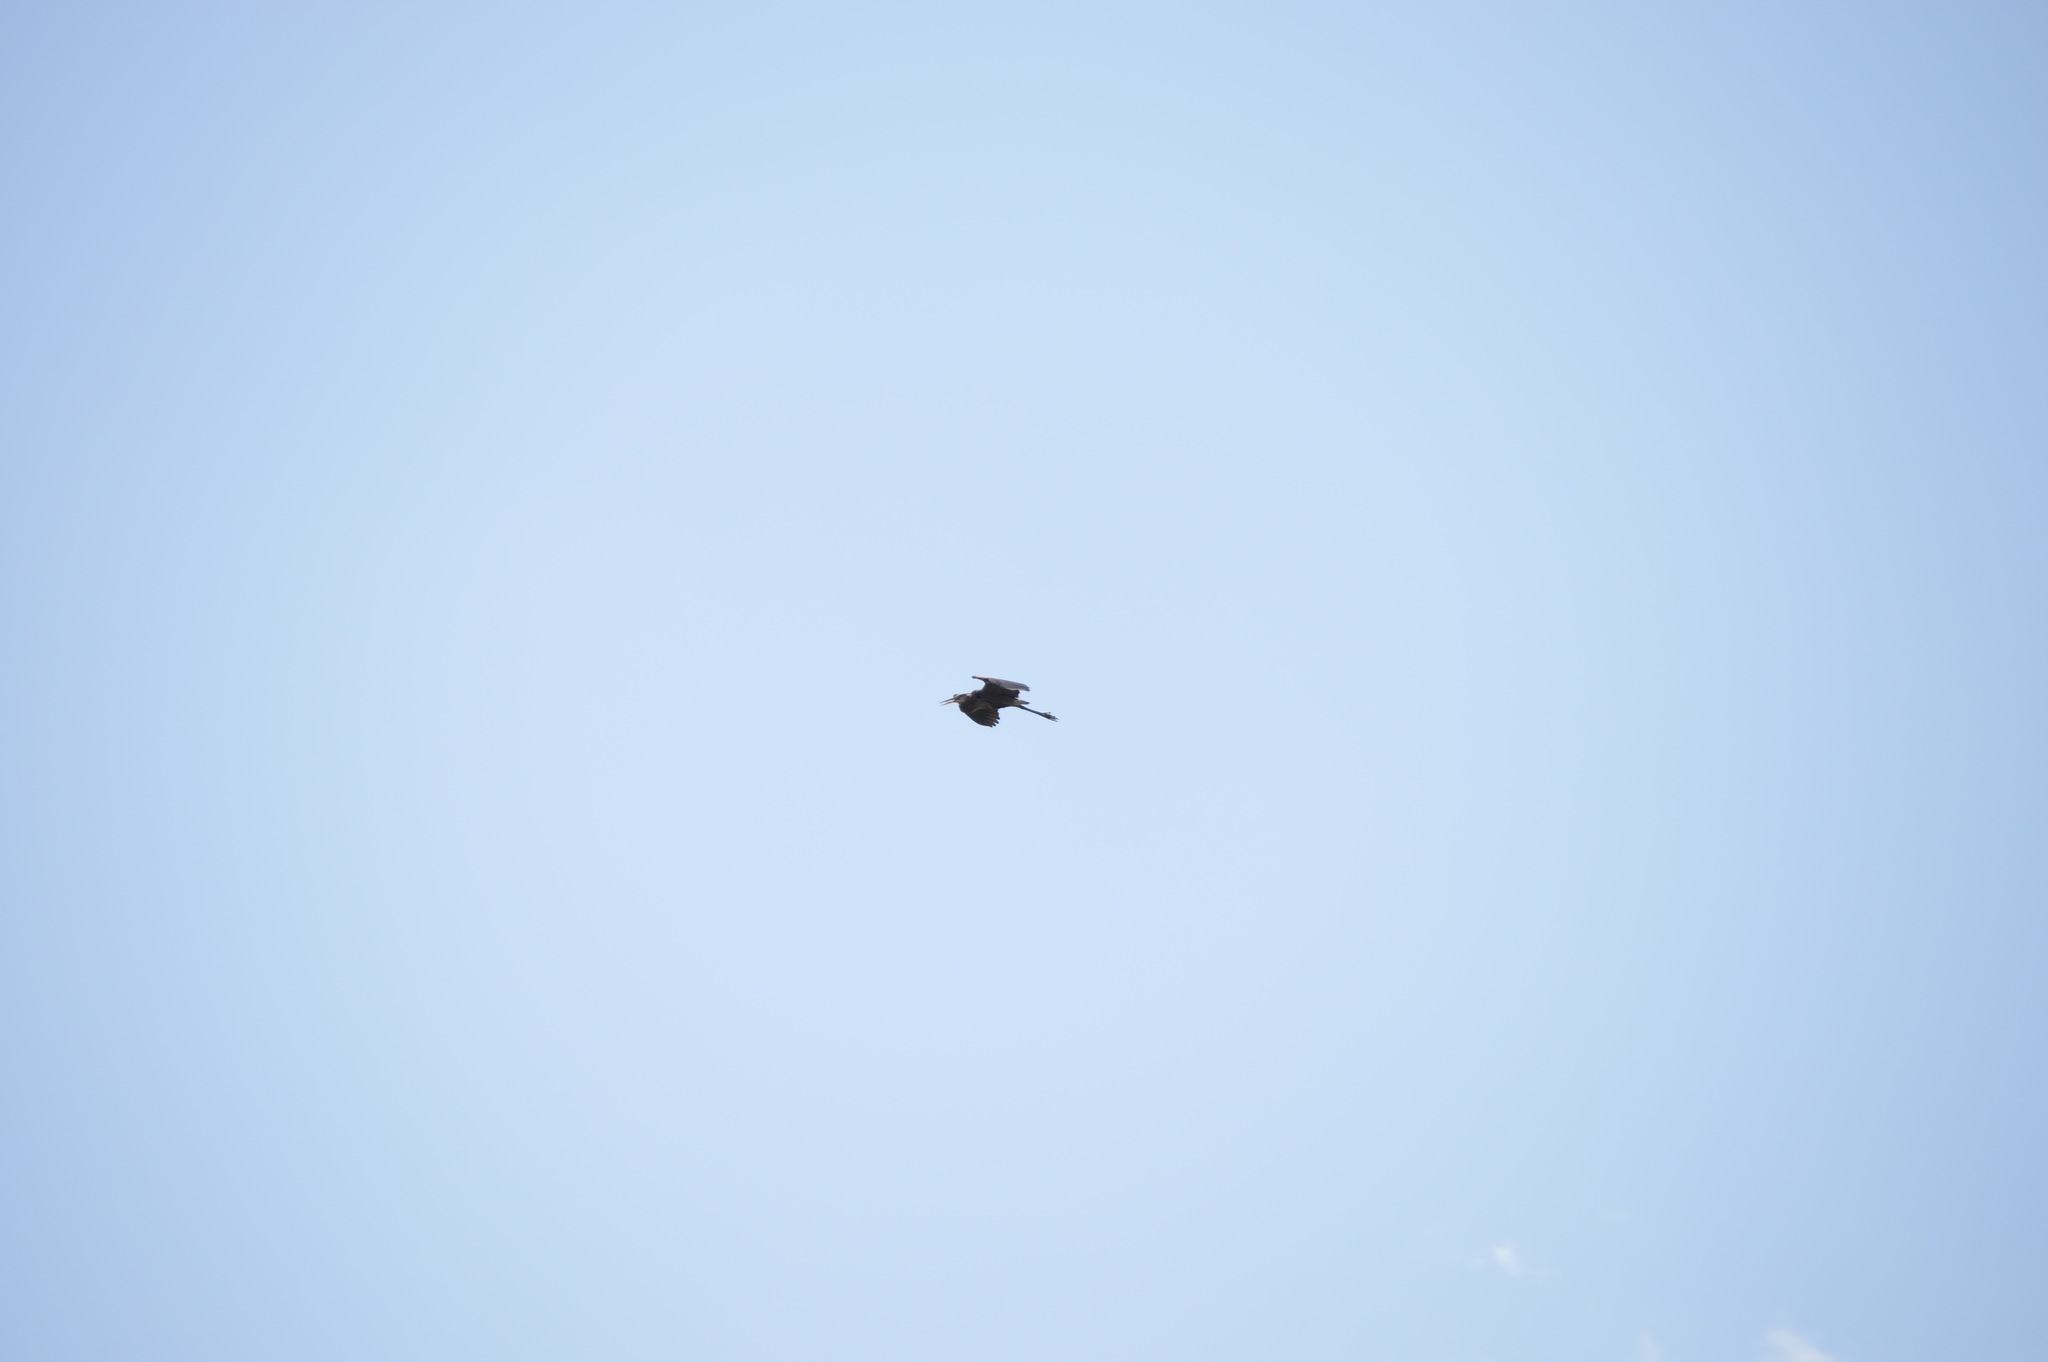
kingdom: Animalia
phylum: Chordata
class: Aves
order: Pelecaniformes
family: Ardeidae
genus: Ardea
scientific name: Ardea herodias
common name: Great blue heron
